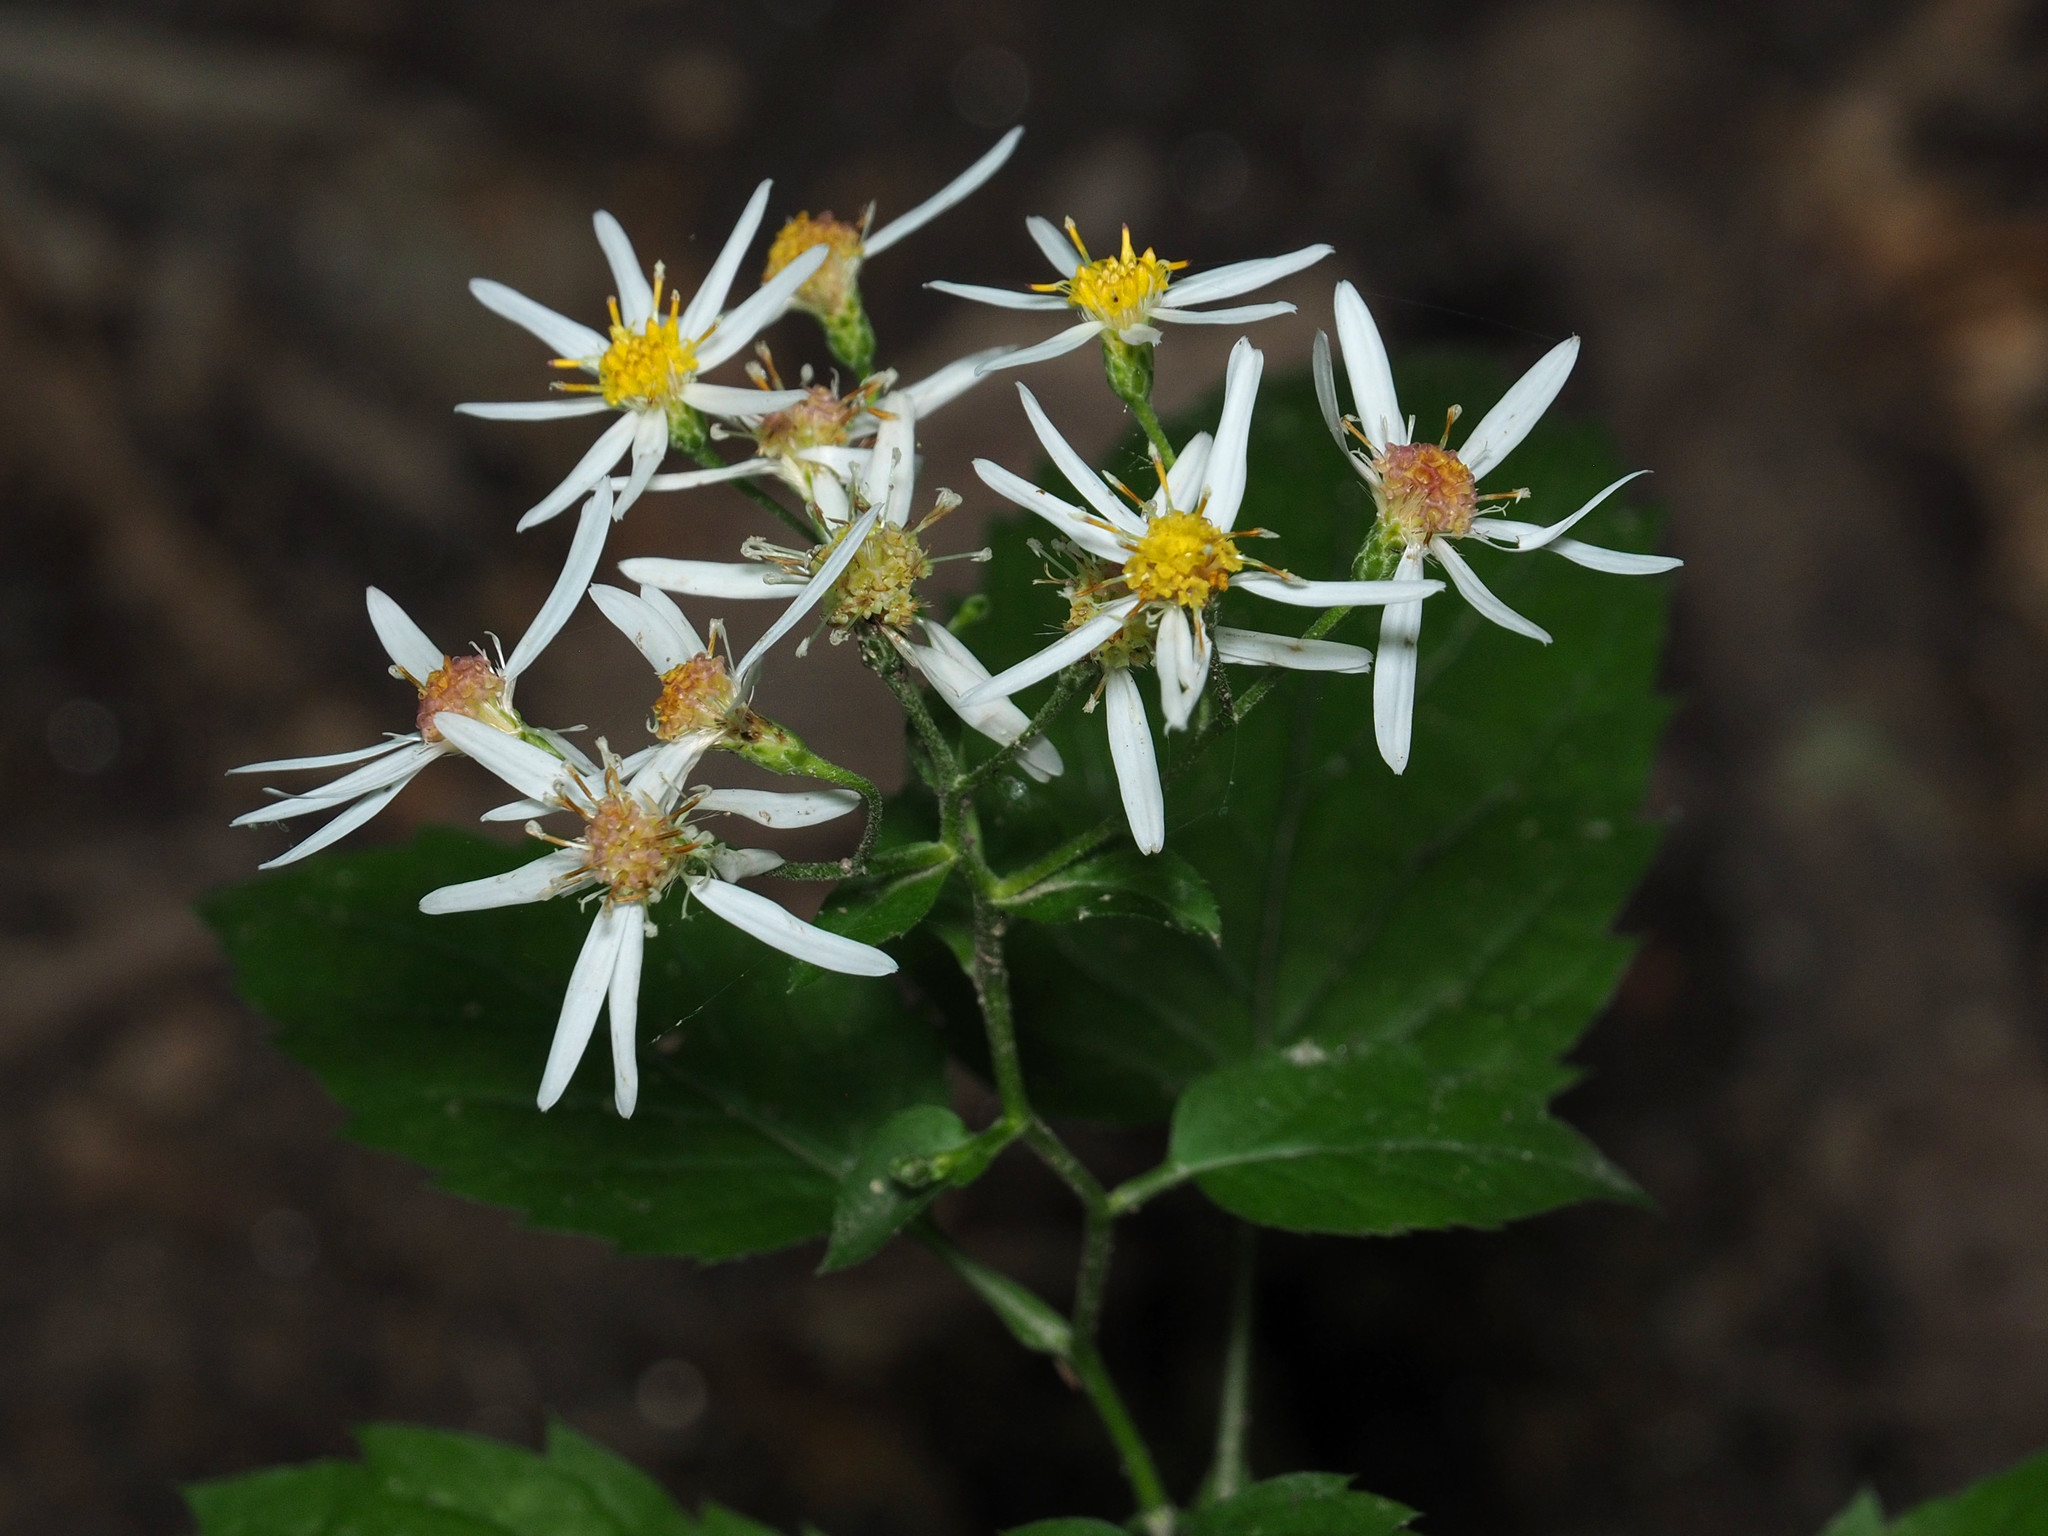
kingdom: Plantae
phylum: Tracheophyta
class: Magnoliopsida
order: Asterales
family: Asteraceae
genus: Eurybia
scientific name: Eurybia divaricata
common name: White wood aster
